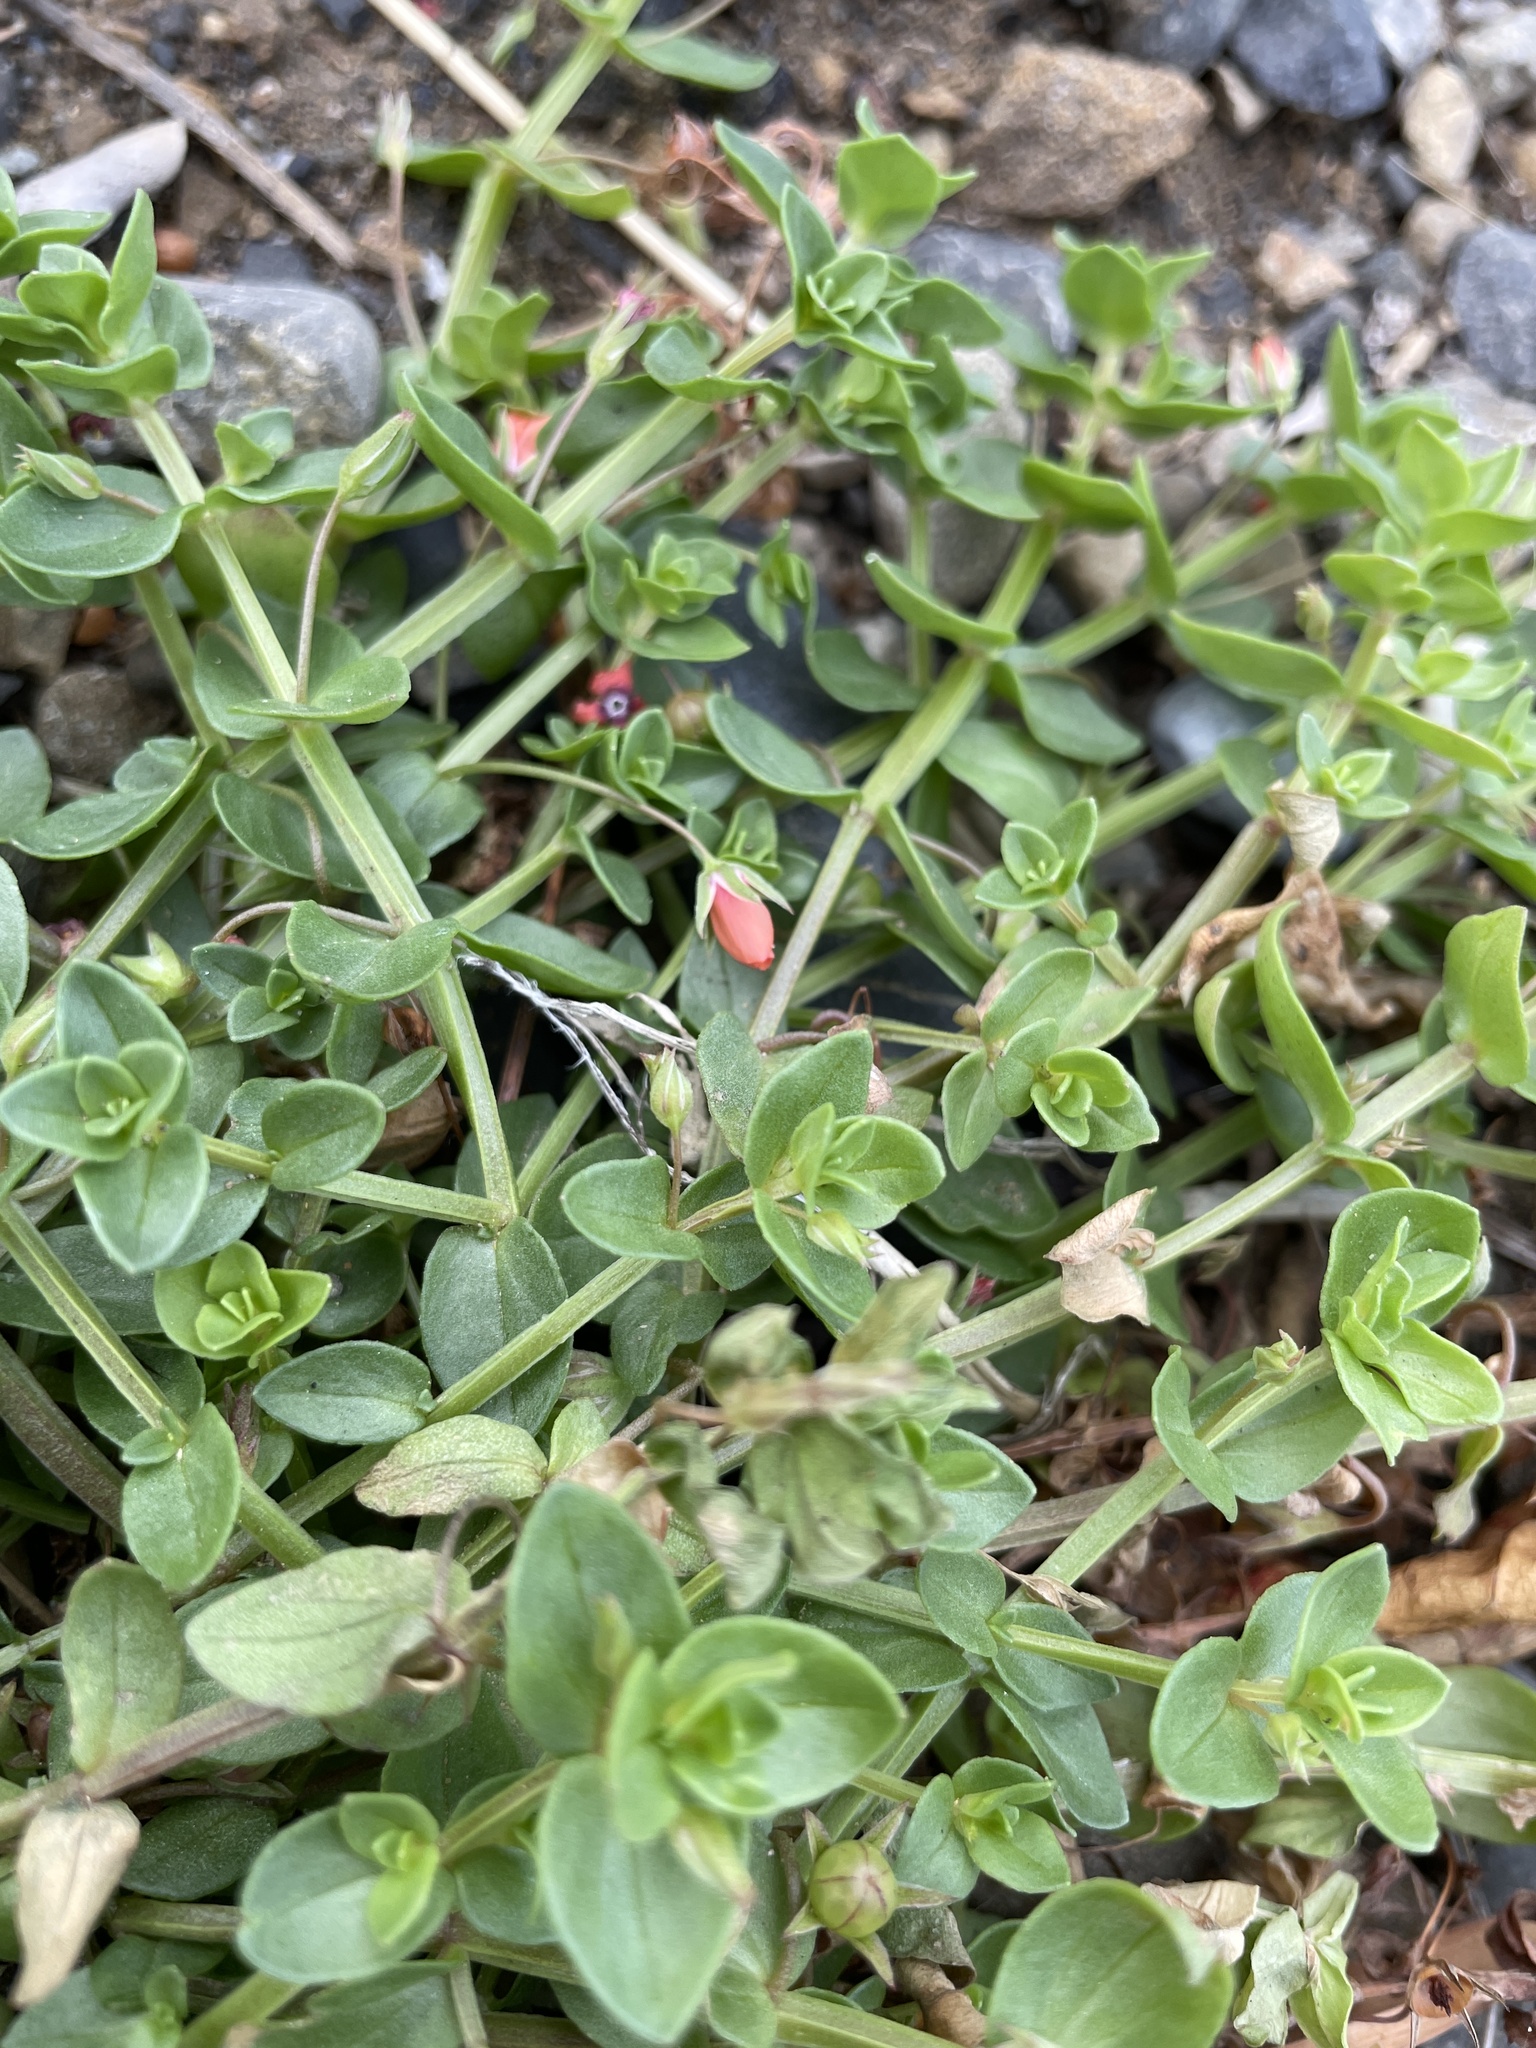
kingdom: Plantae
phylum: Tracheophyta
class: Magnoliopsida
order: Ericales
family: Primulaceae
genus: Lysimachia
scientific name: Lysimachia arvensis
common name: Scarlet pimpernel
